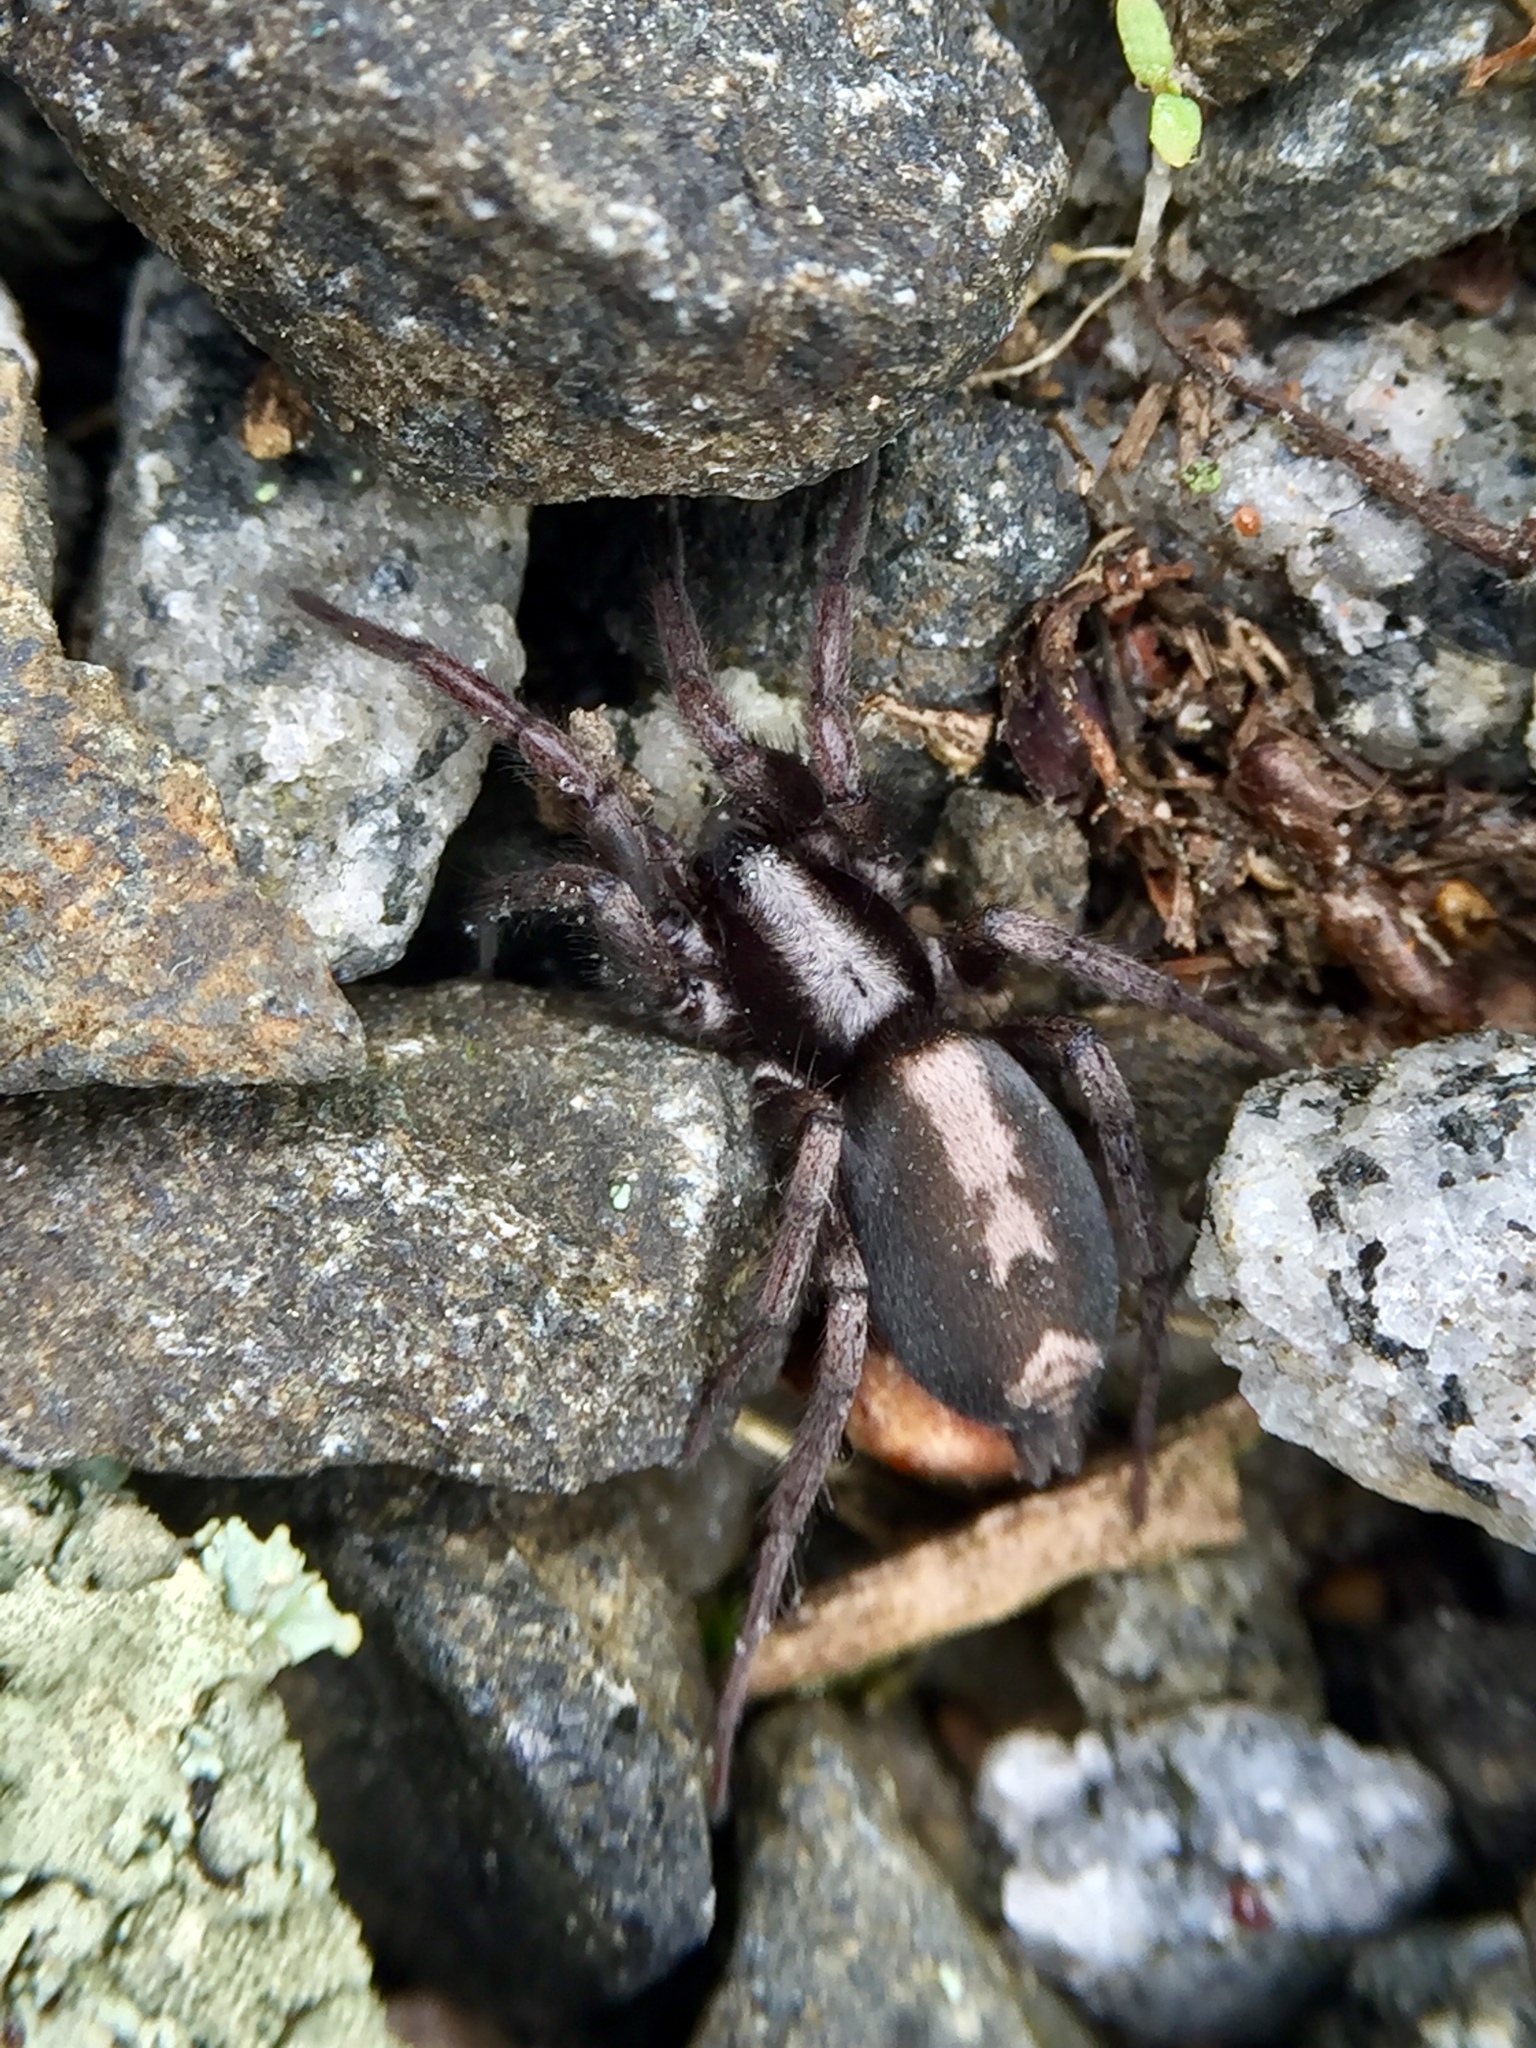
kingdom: Animalia
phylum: Arthropoda
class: Arachnida
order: Araneae
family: Gnaphosidae
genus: Herpyllus
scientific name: Herpyllus ecclesiasticus
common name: Eastern parson spider
